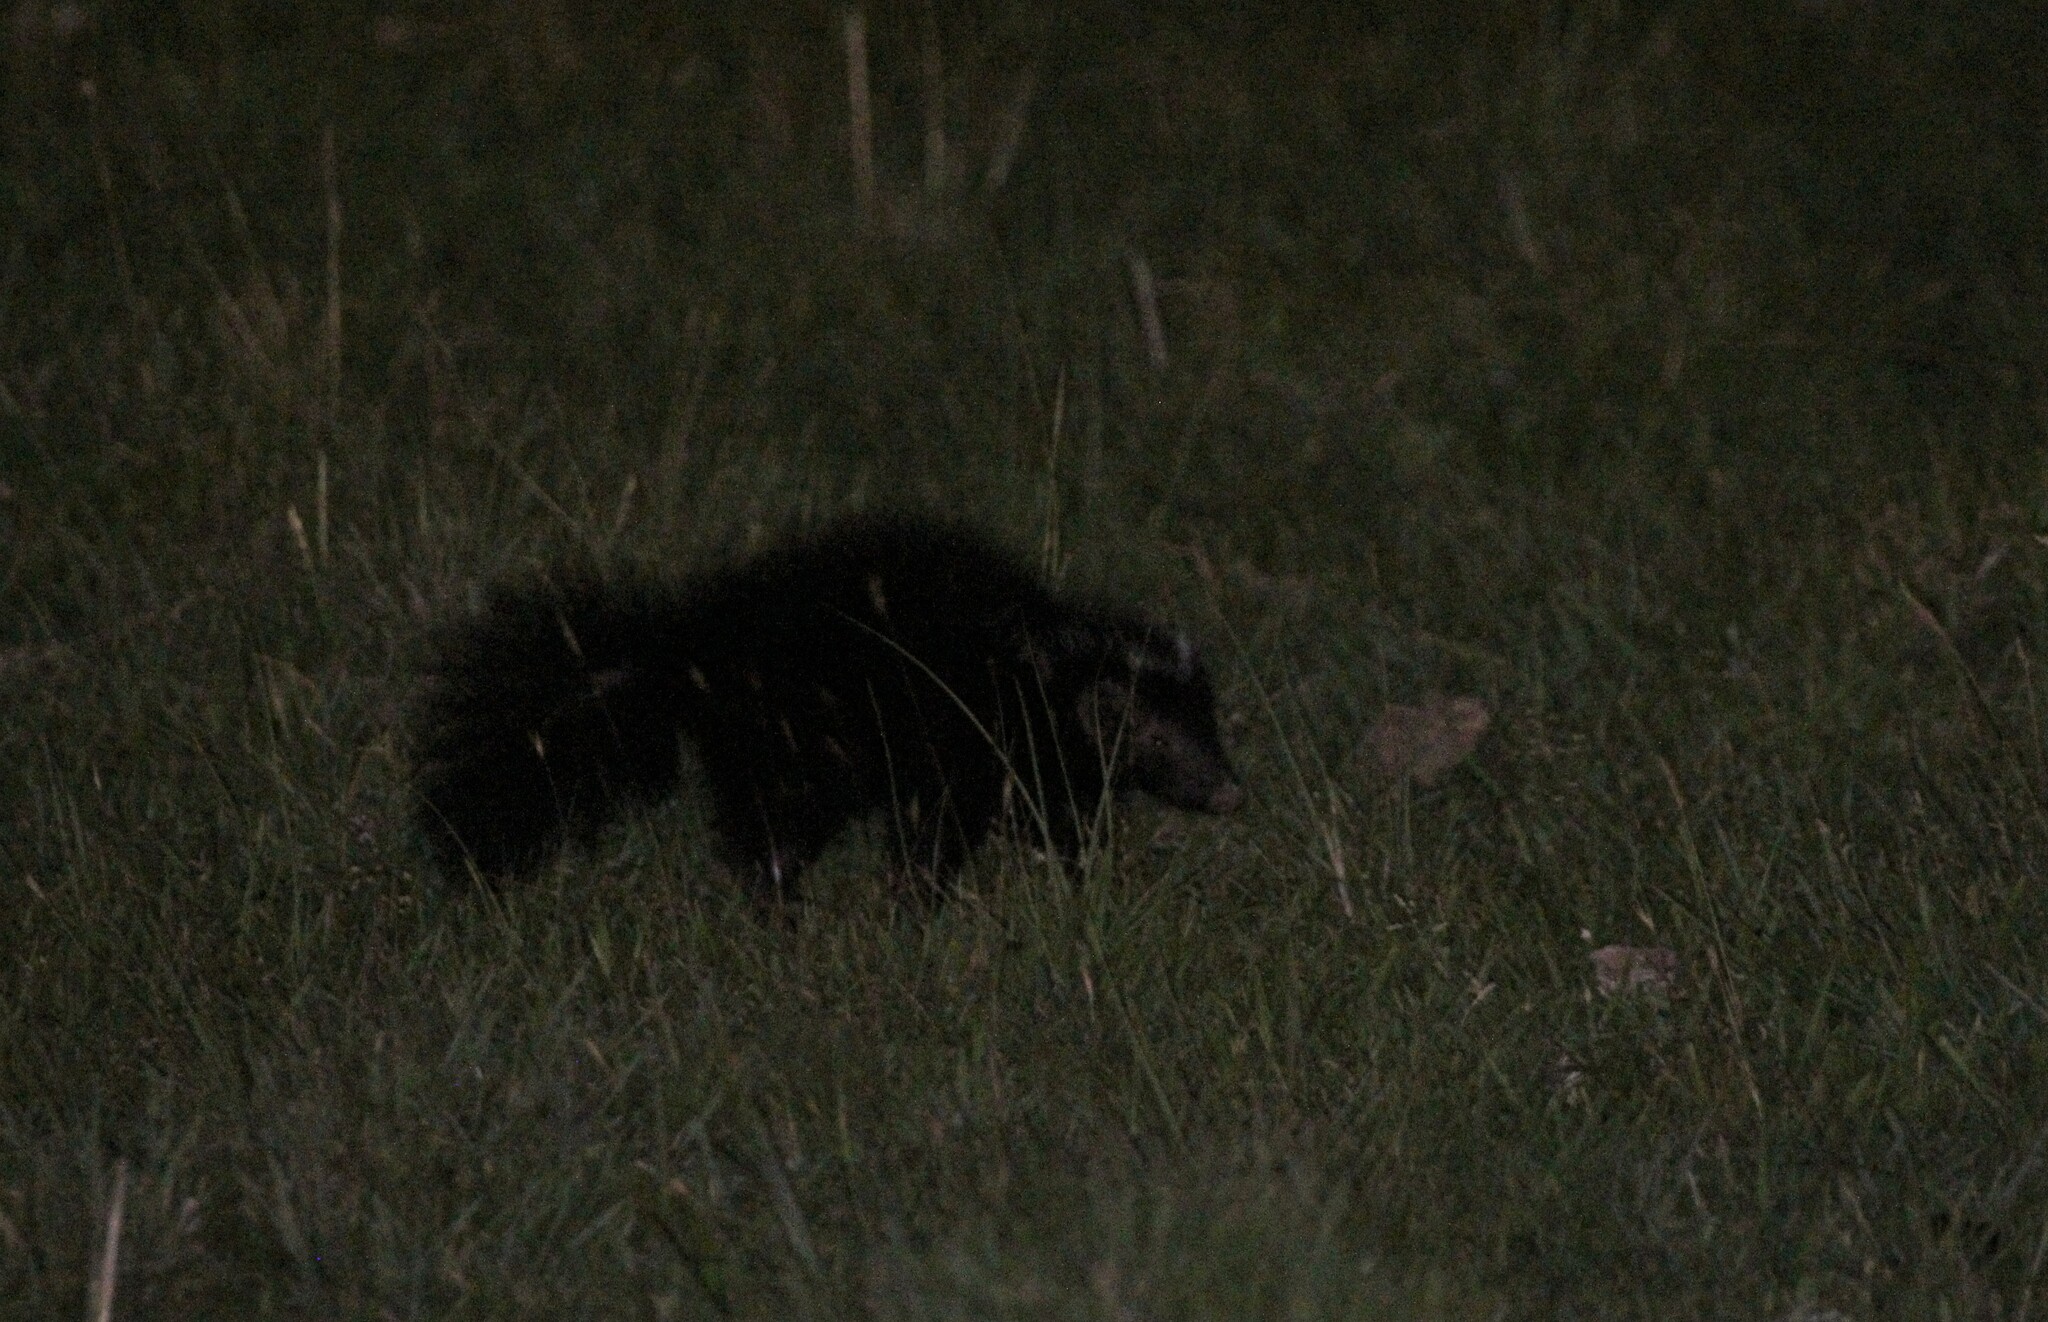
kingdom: Animalia
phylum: Chordata
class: Mammalia
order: Carnivora
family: Mephitidae
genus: Conepatus
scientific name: Conepatus chinga
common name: Molina's hog-nosed skunk
